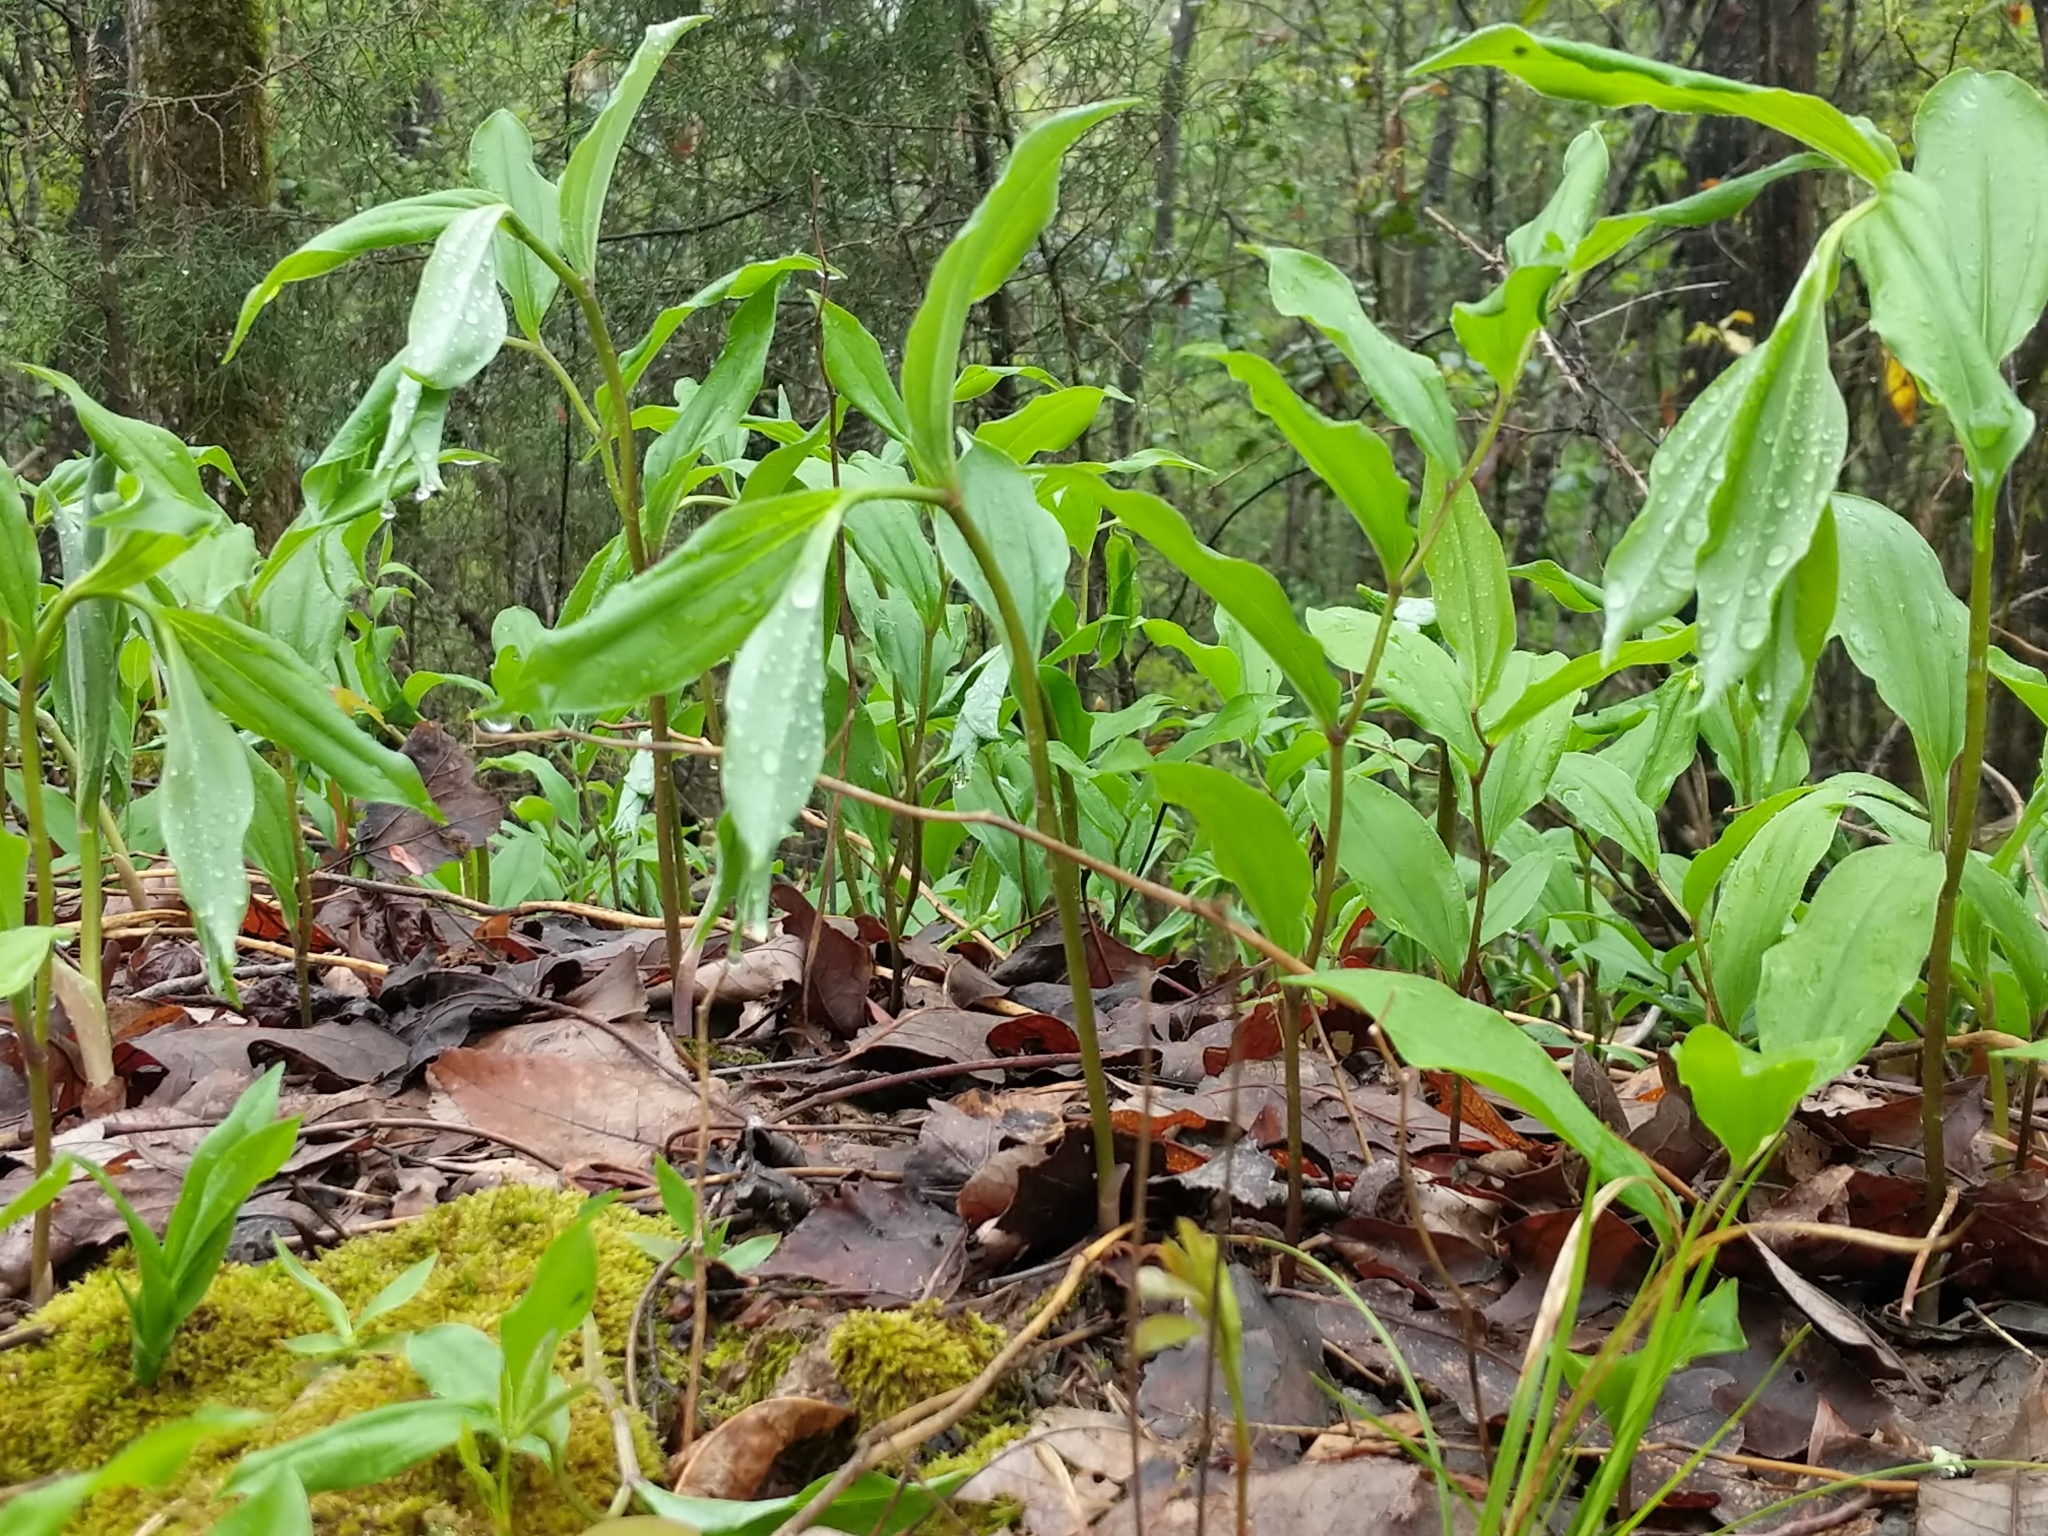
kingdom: Plantae
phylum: Tracheophyta
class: Liliopsida
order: Asparagales
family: Asparagaceae
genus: Maianthemum
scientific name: Maianthemum racemosum
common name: False spikenard
